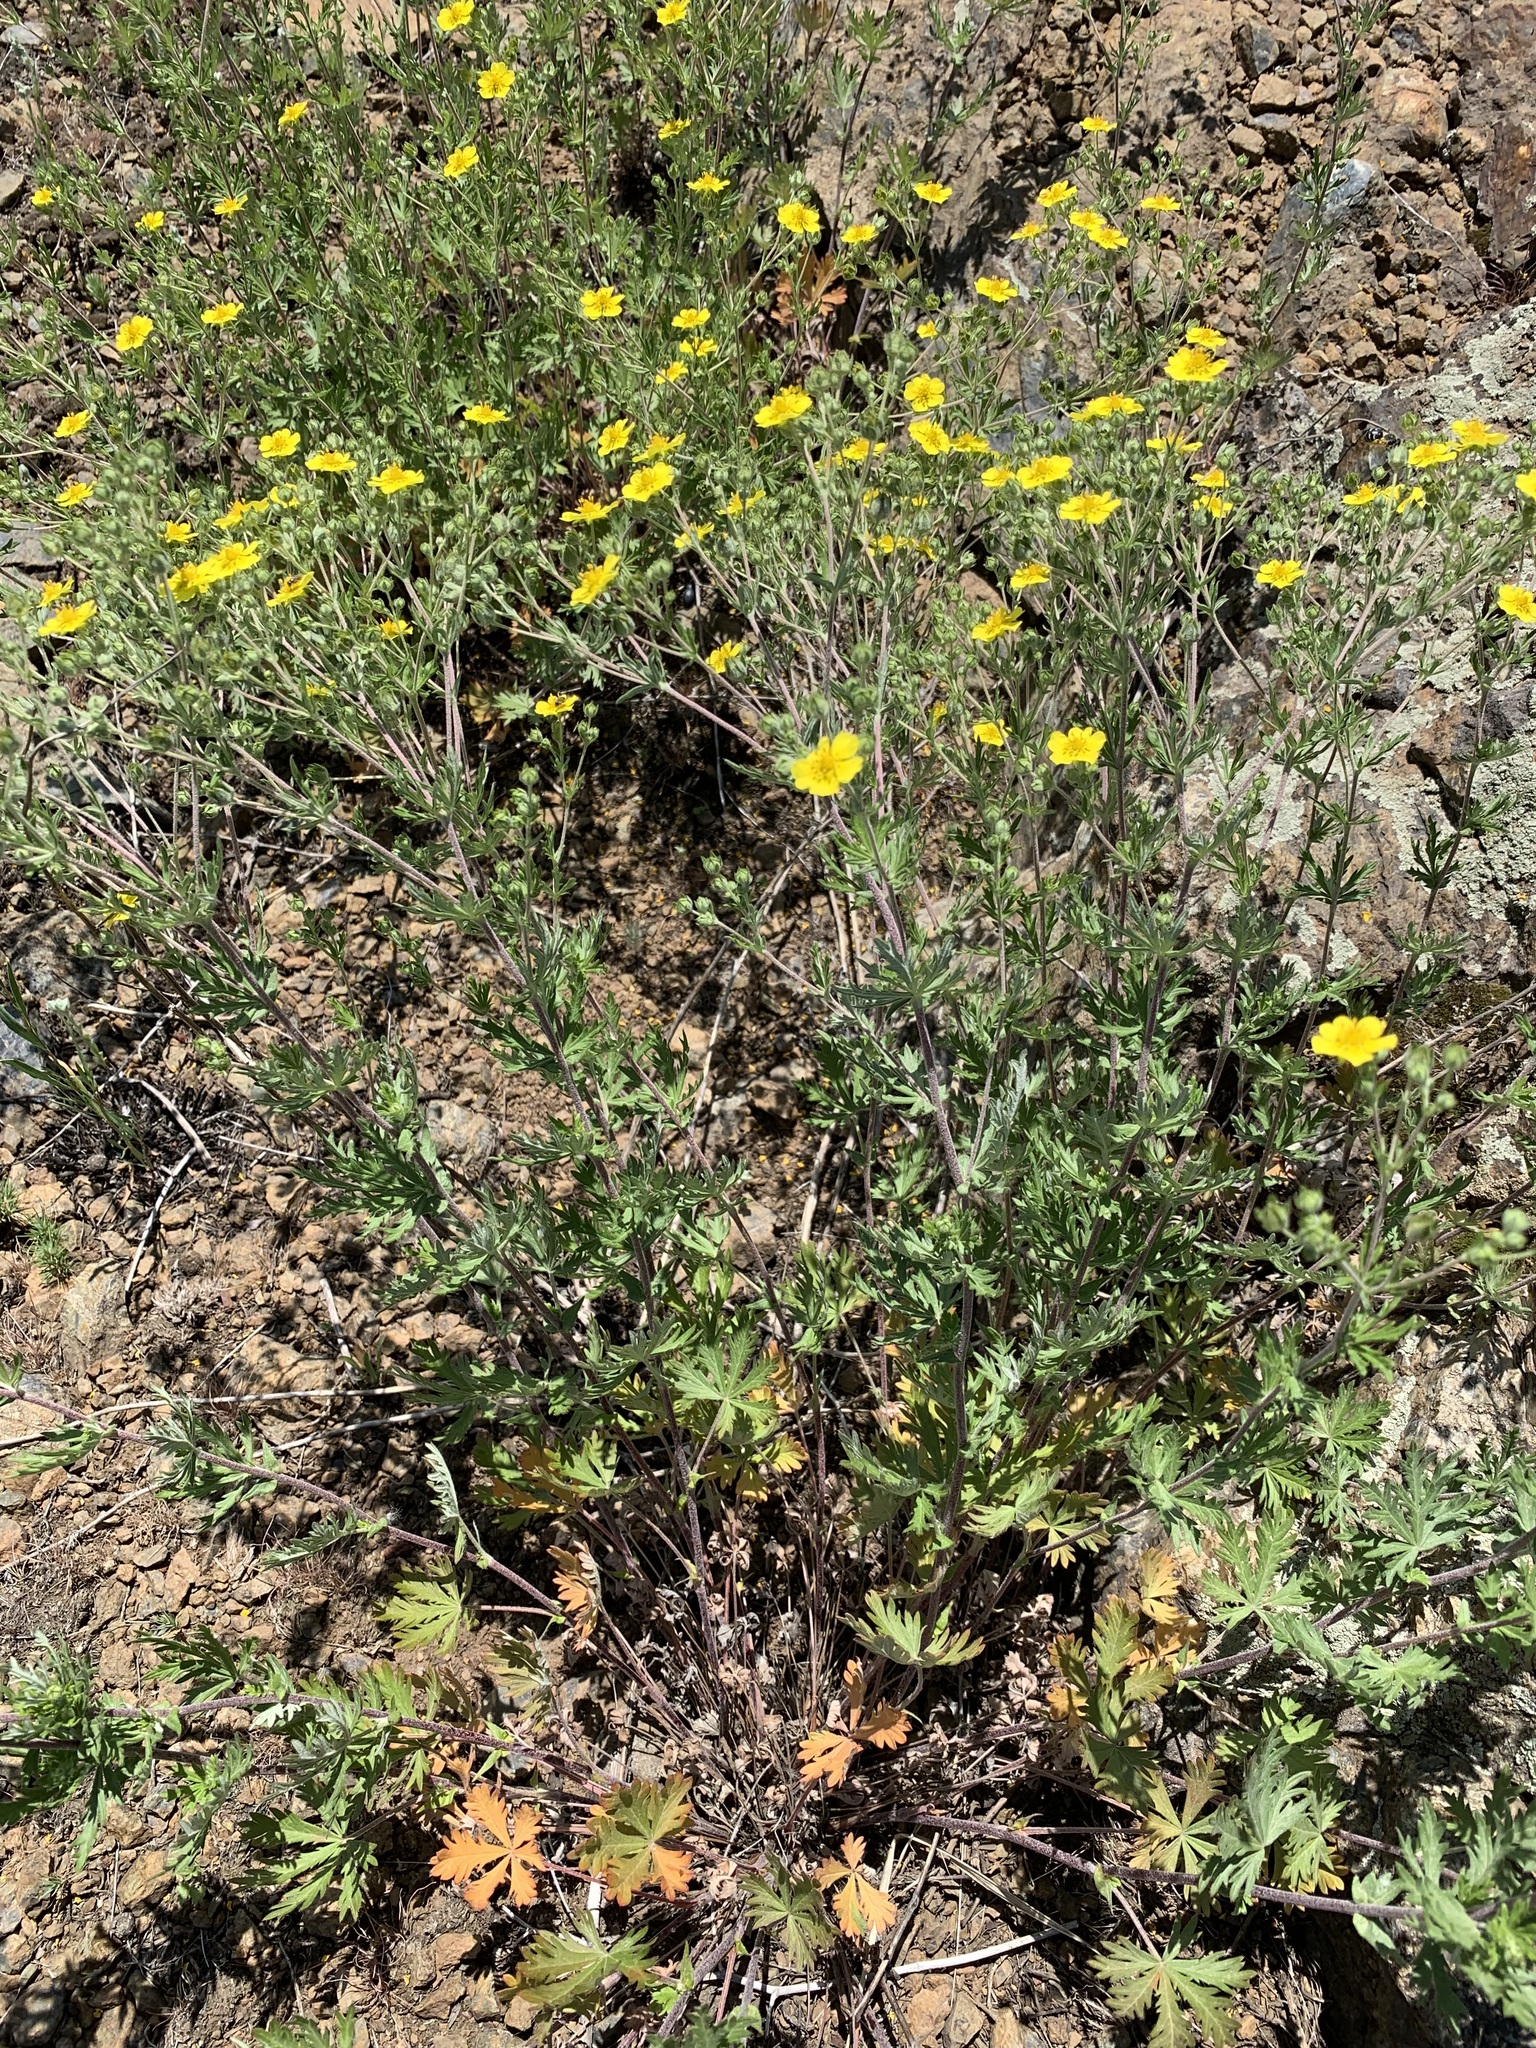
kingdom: Plantae
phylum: Tracheophyta
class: Magnoliopsida
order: Rosales
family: Rosaceae
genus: Potentilla
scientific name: Potentilla argentea
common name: Hoary cinquefoil
